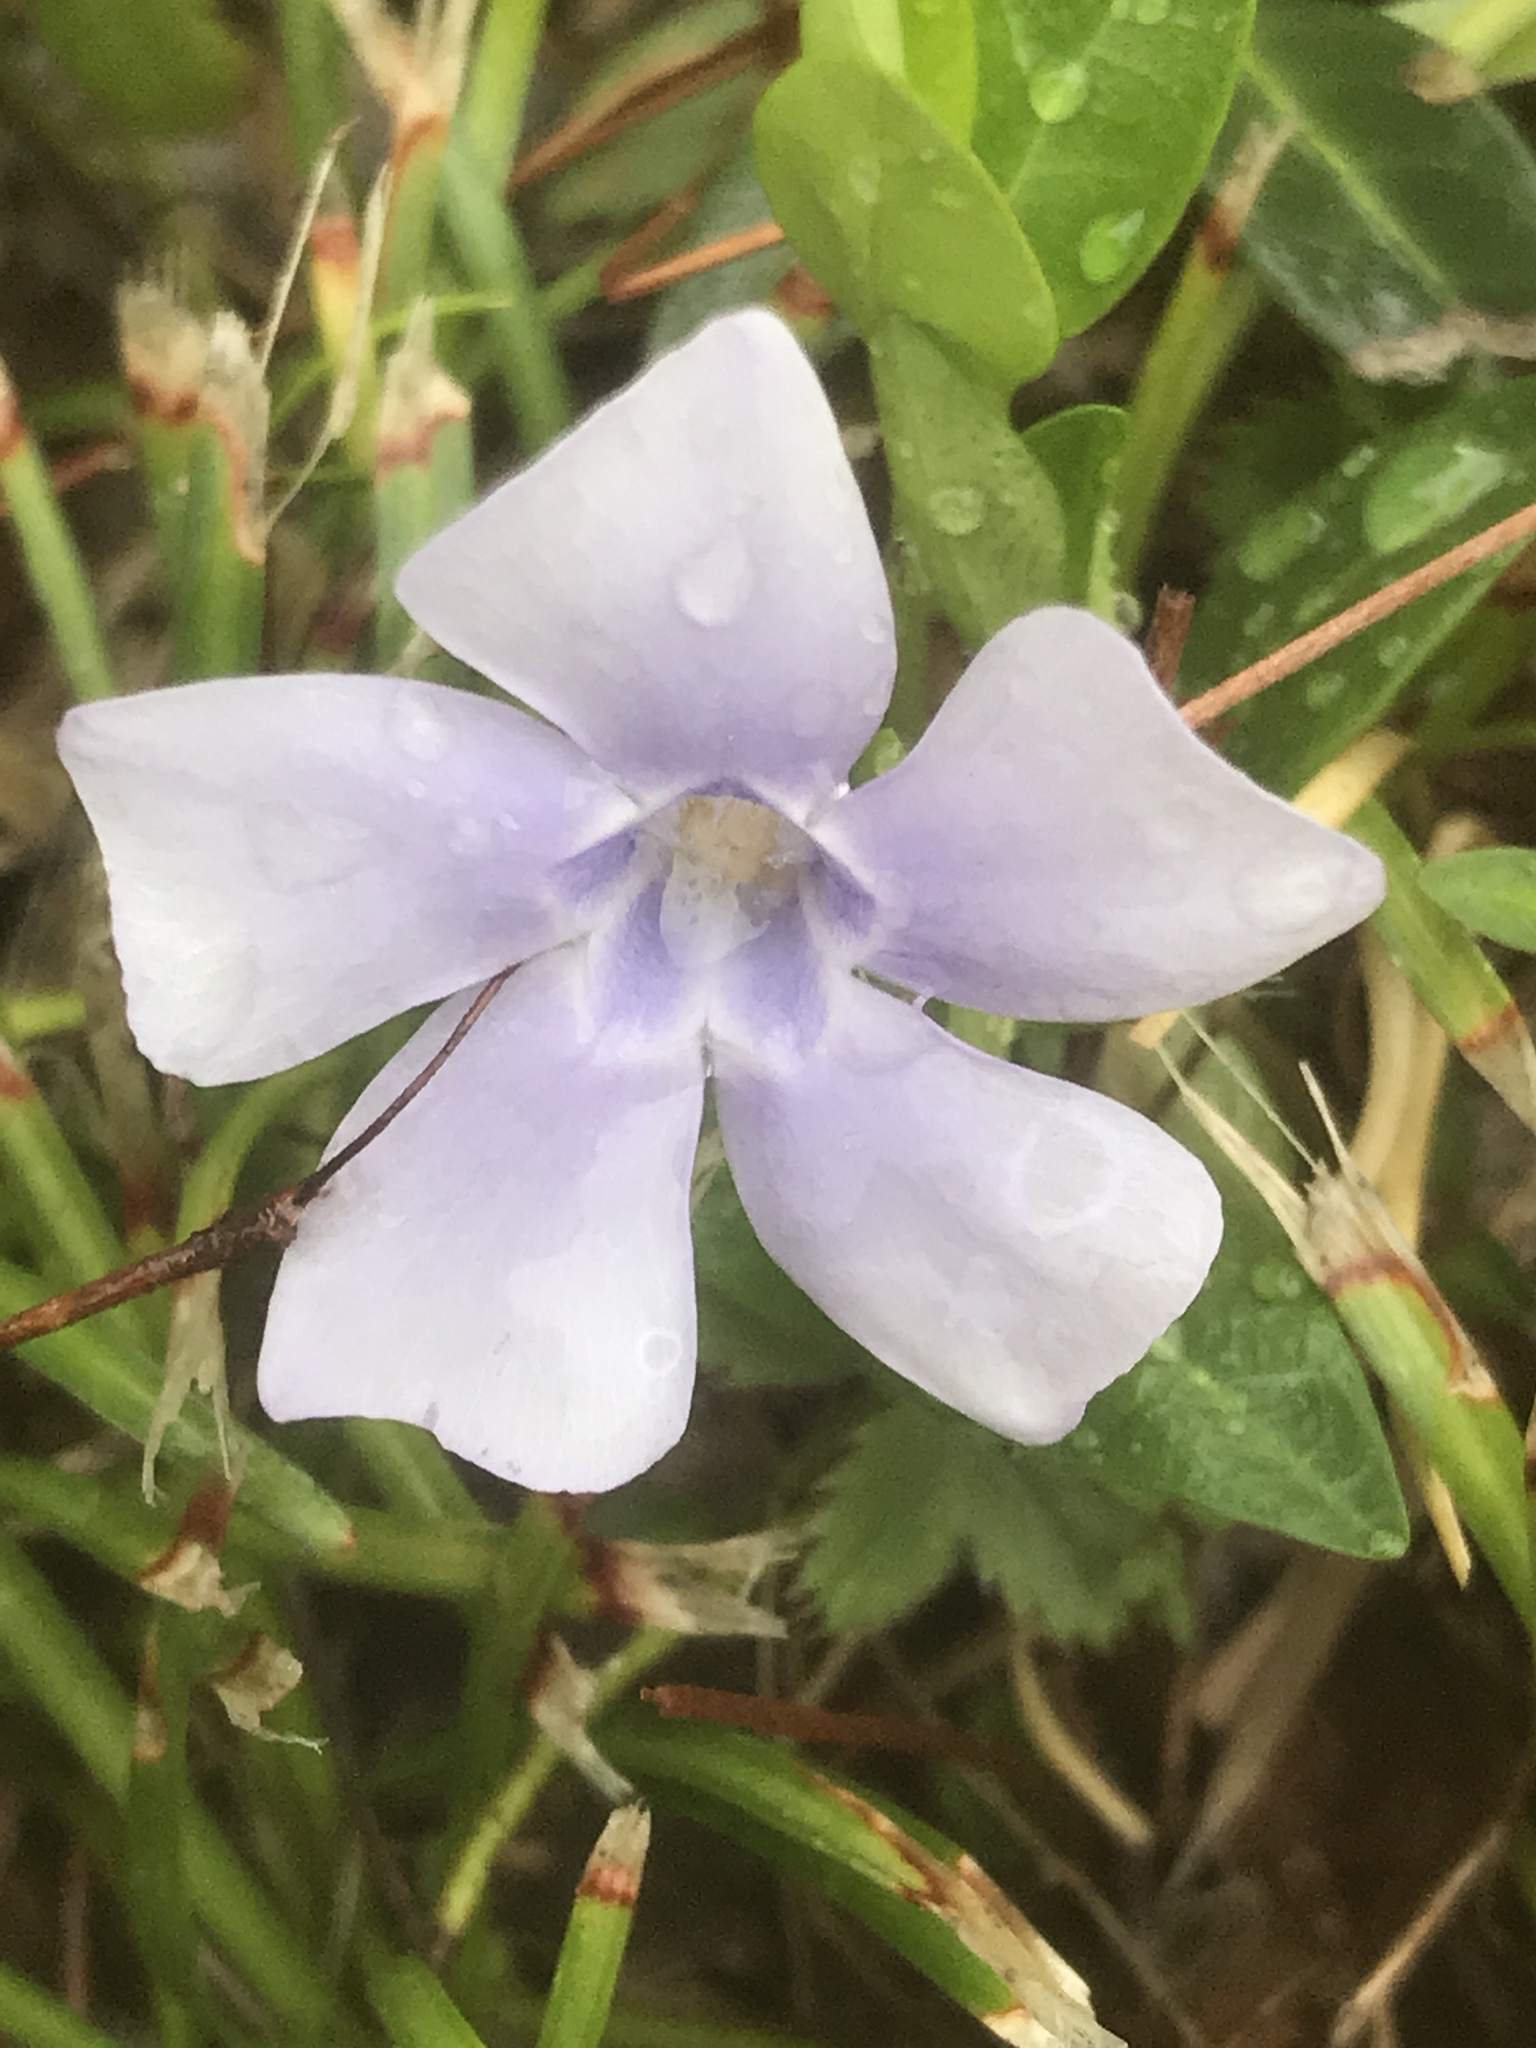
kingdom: Plantae
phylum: Tracheophyta
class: Magnoliopsida
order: Gentianales
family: Apocynaceae
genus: Vinca
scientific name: Vinca minor
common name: Lesser periwinkle
